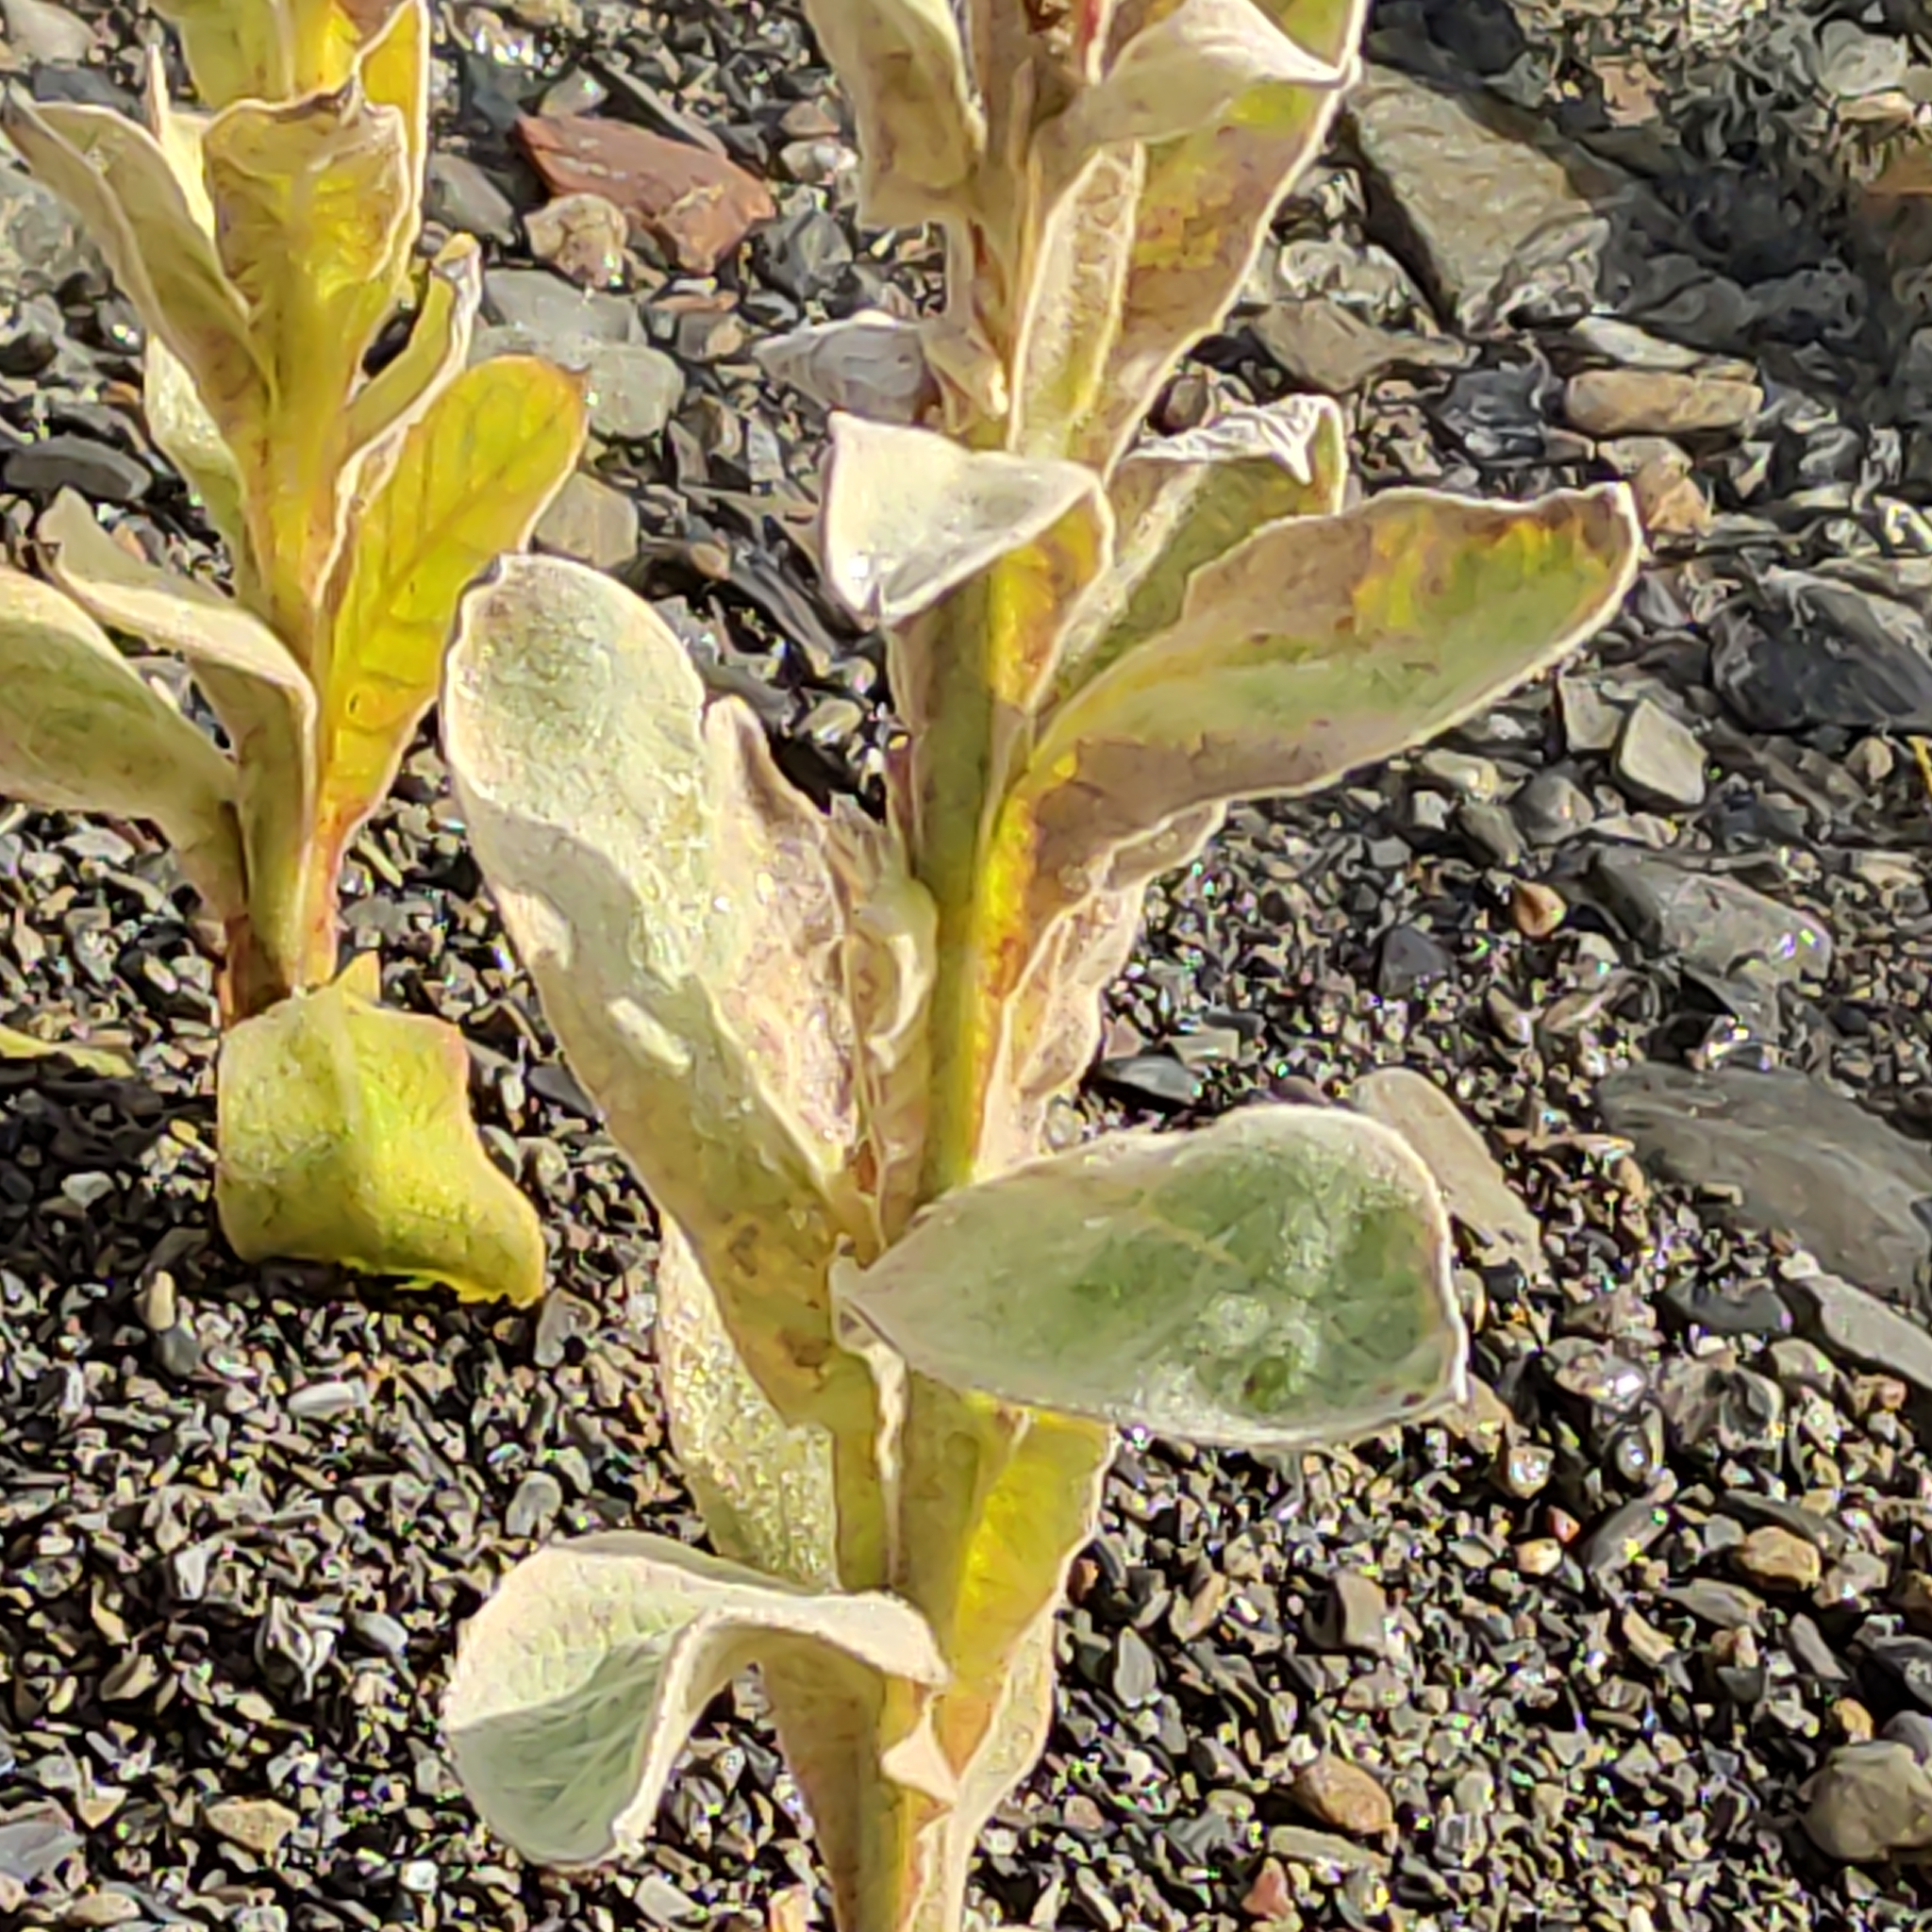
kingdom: Plantae
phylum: Tracheophyta
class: Magnoliopsida
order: Lamiales
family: Scrophulariaceae
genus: Verbascum
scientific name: Verbascum thapsus
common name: Common mullein
